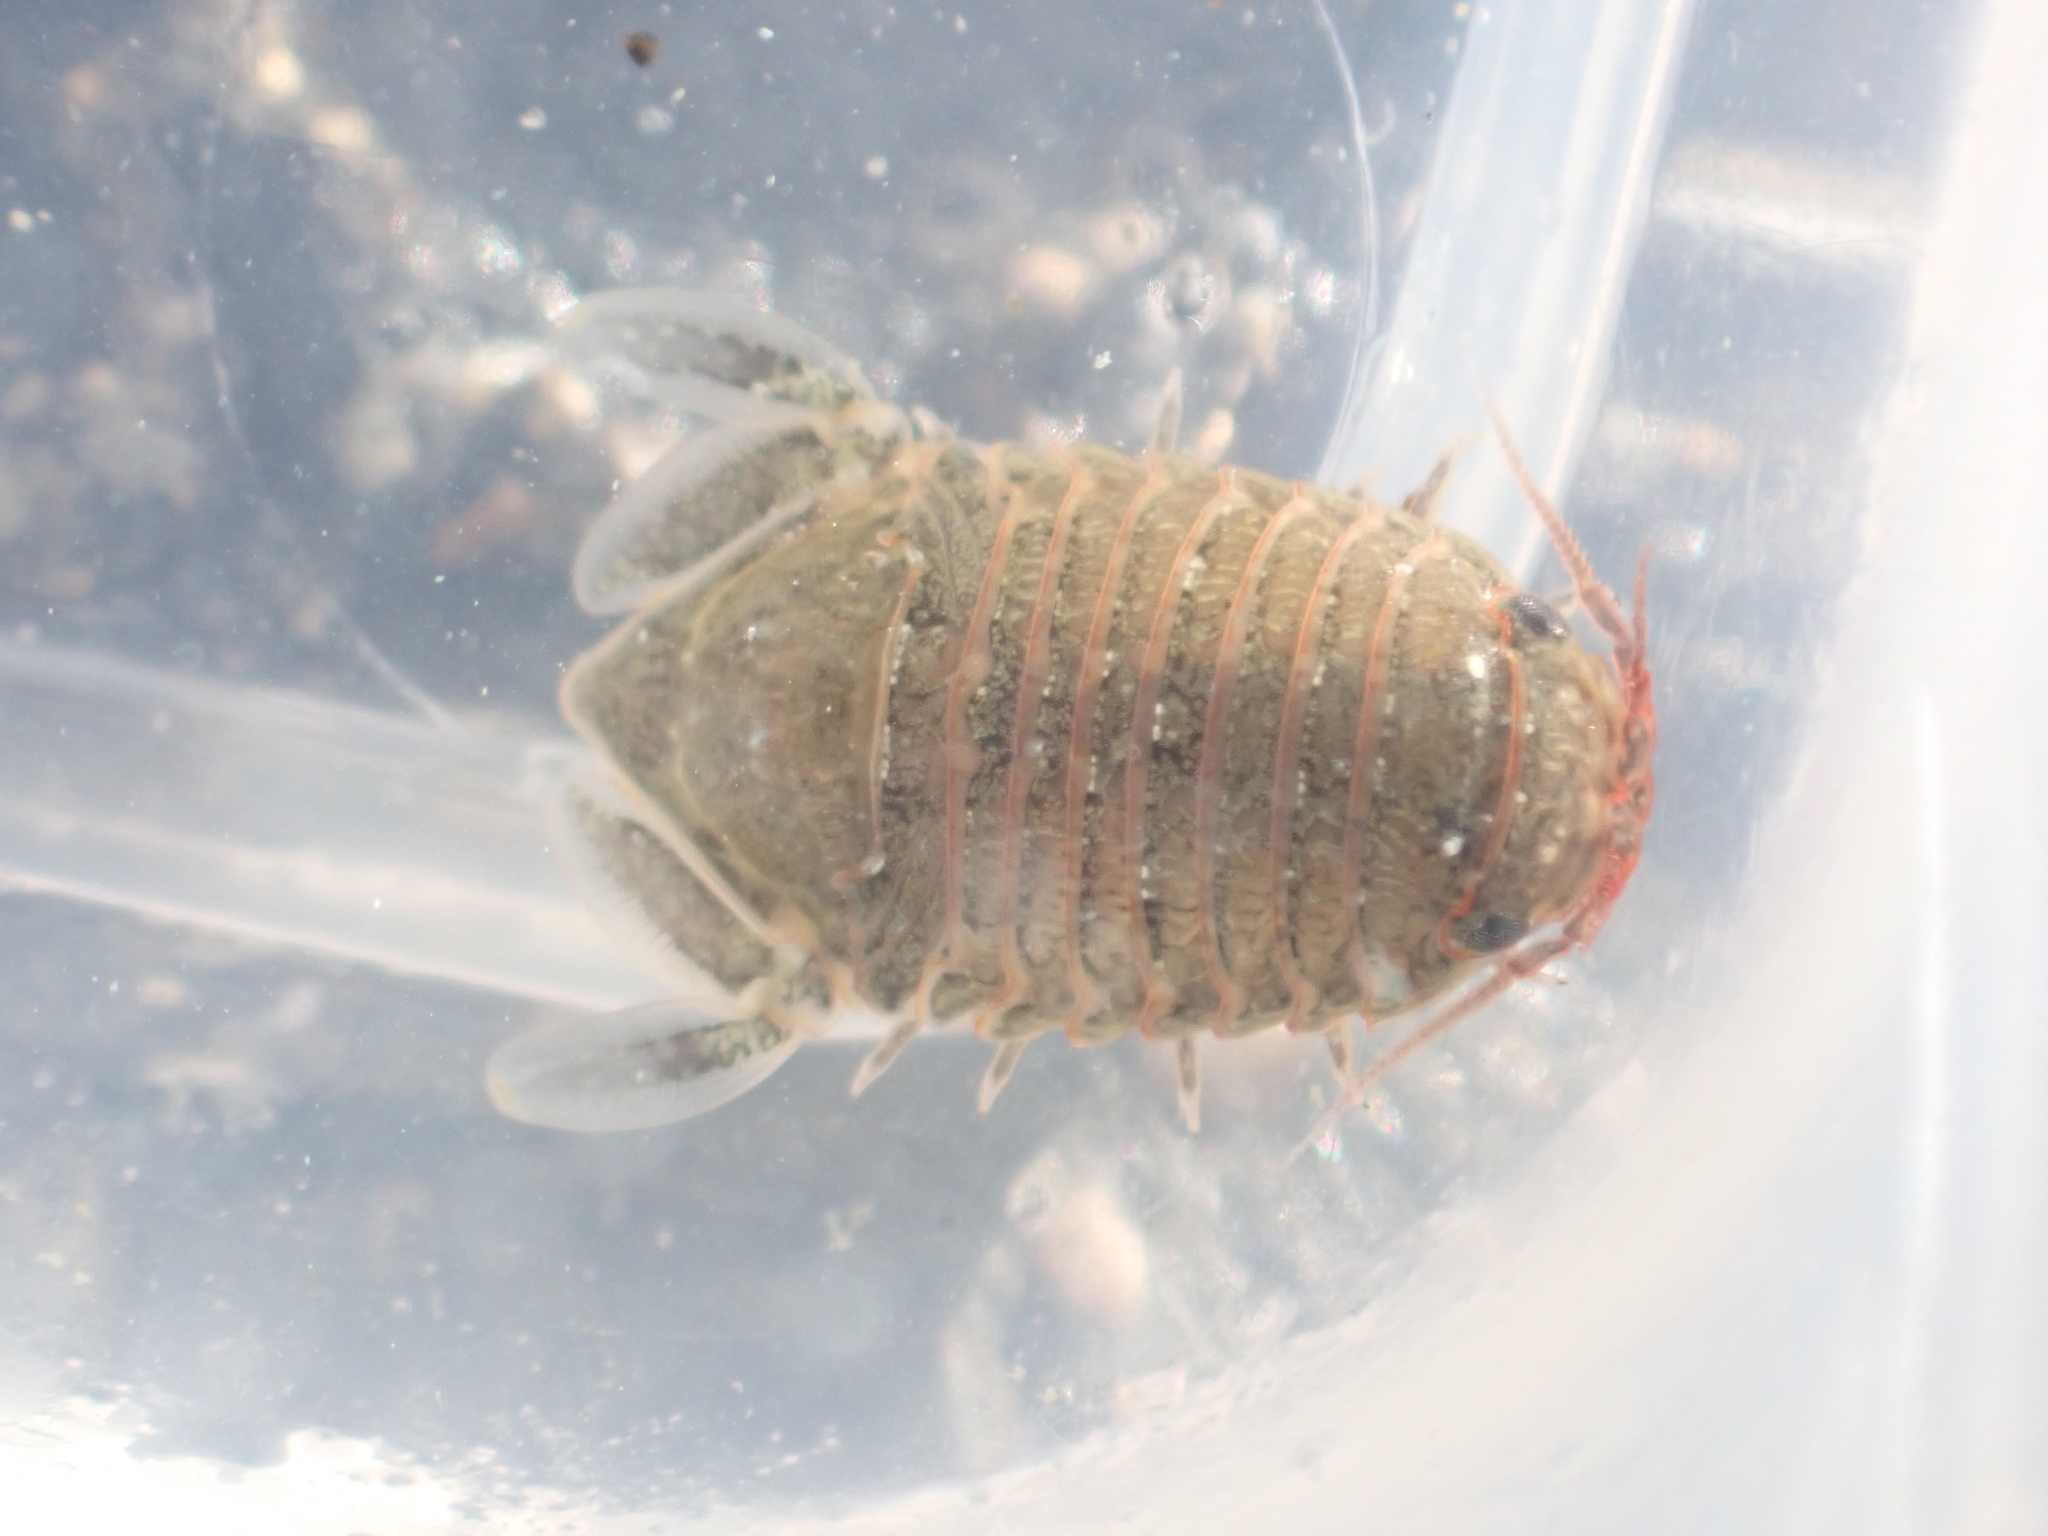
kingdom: Animalia
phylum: Arthropoda
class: Malacostraca
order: Isopoda
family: Sphaeromatidae
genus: Exosphaeroma
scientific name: Exosphaeroma gigas
